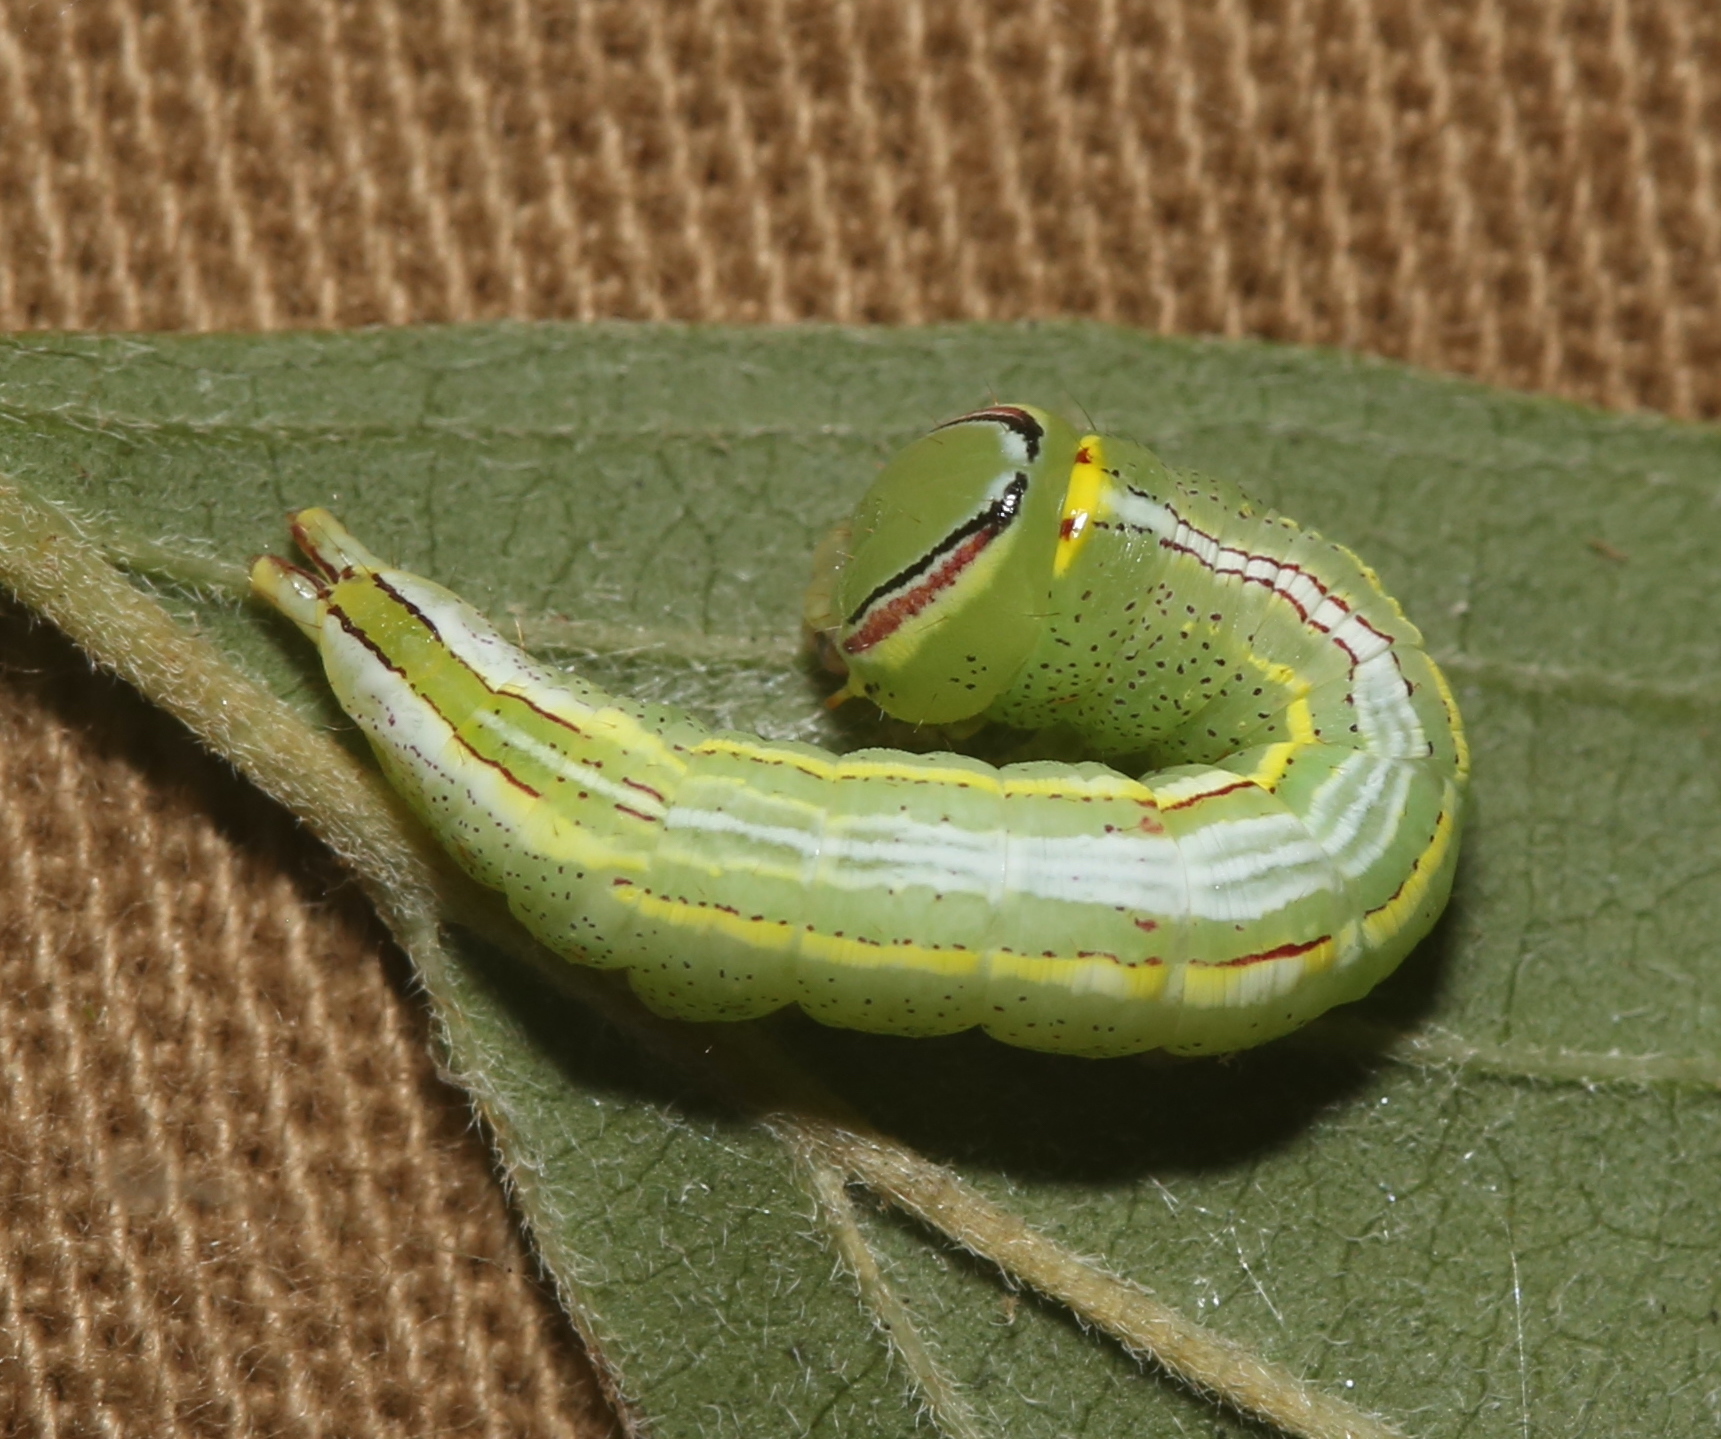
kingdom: Animalia
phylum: Arthropoda
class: Insecta
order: Lepidoptera
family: Notodontidae
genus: Disphragis
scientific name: Disphragis Cecrita guttivitta
